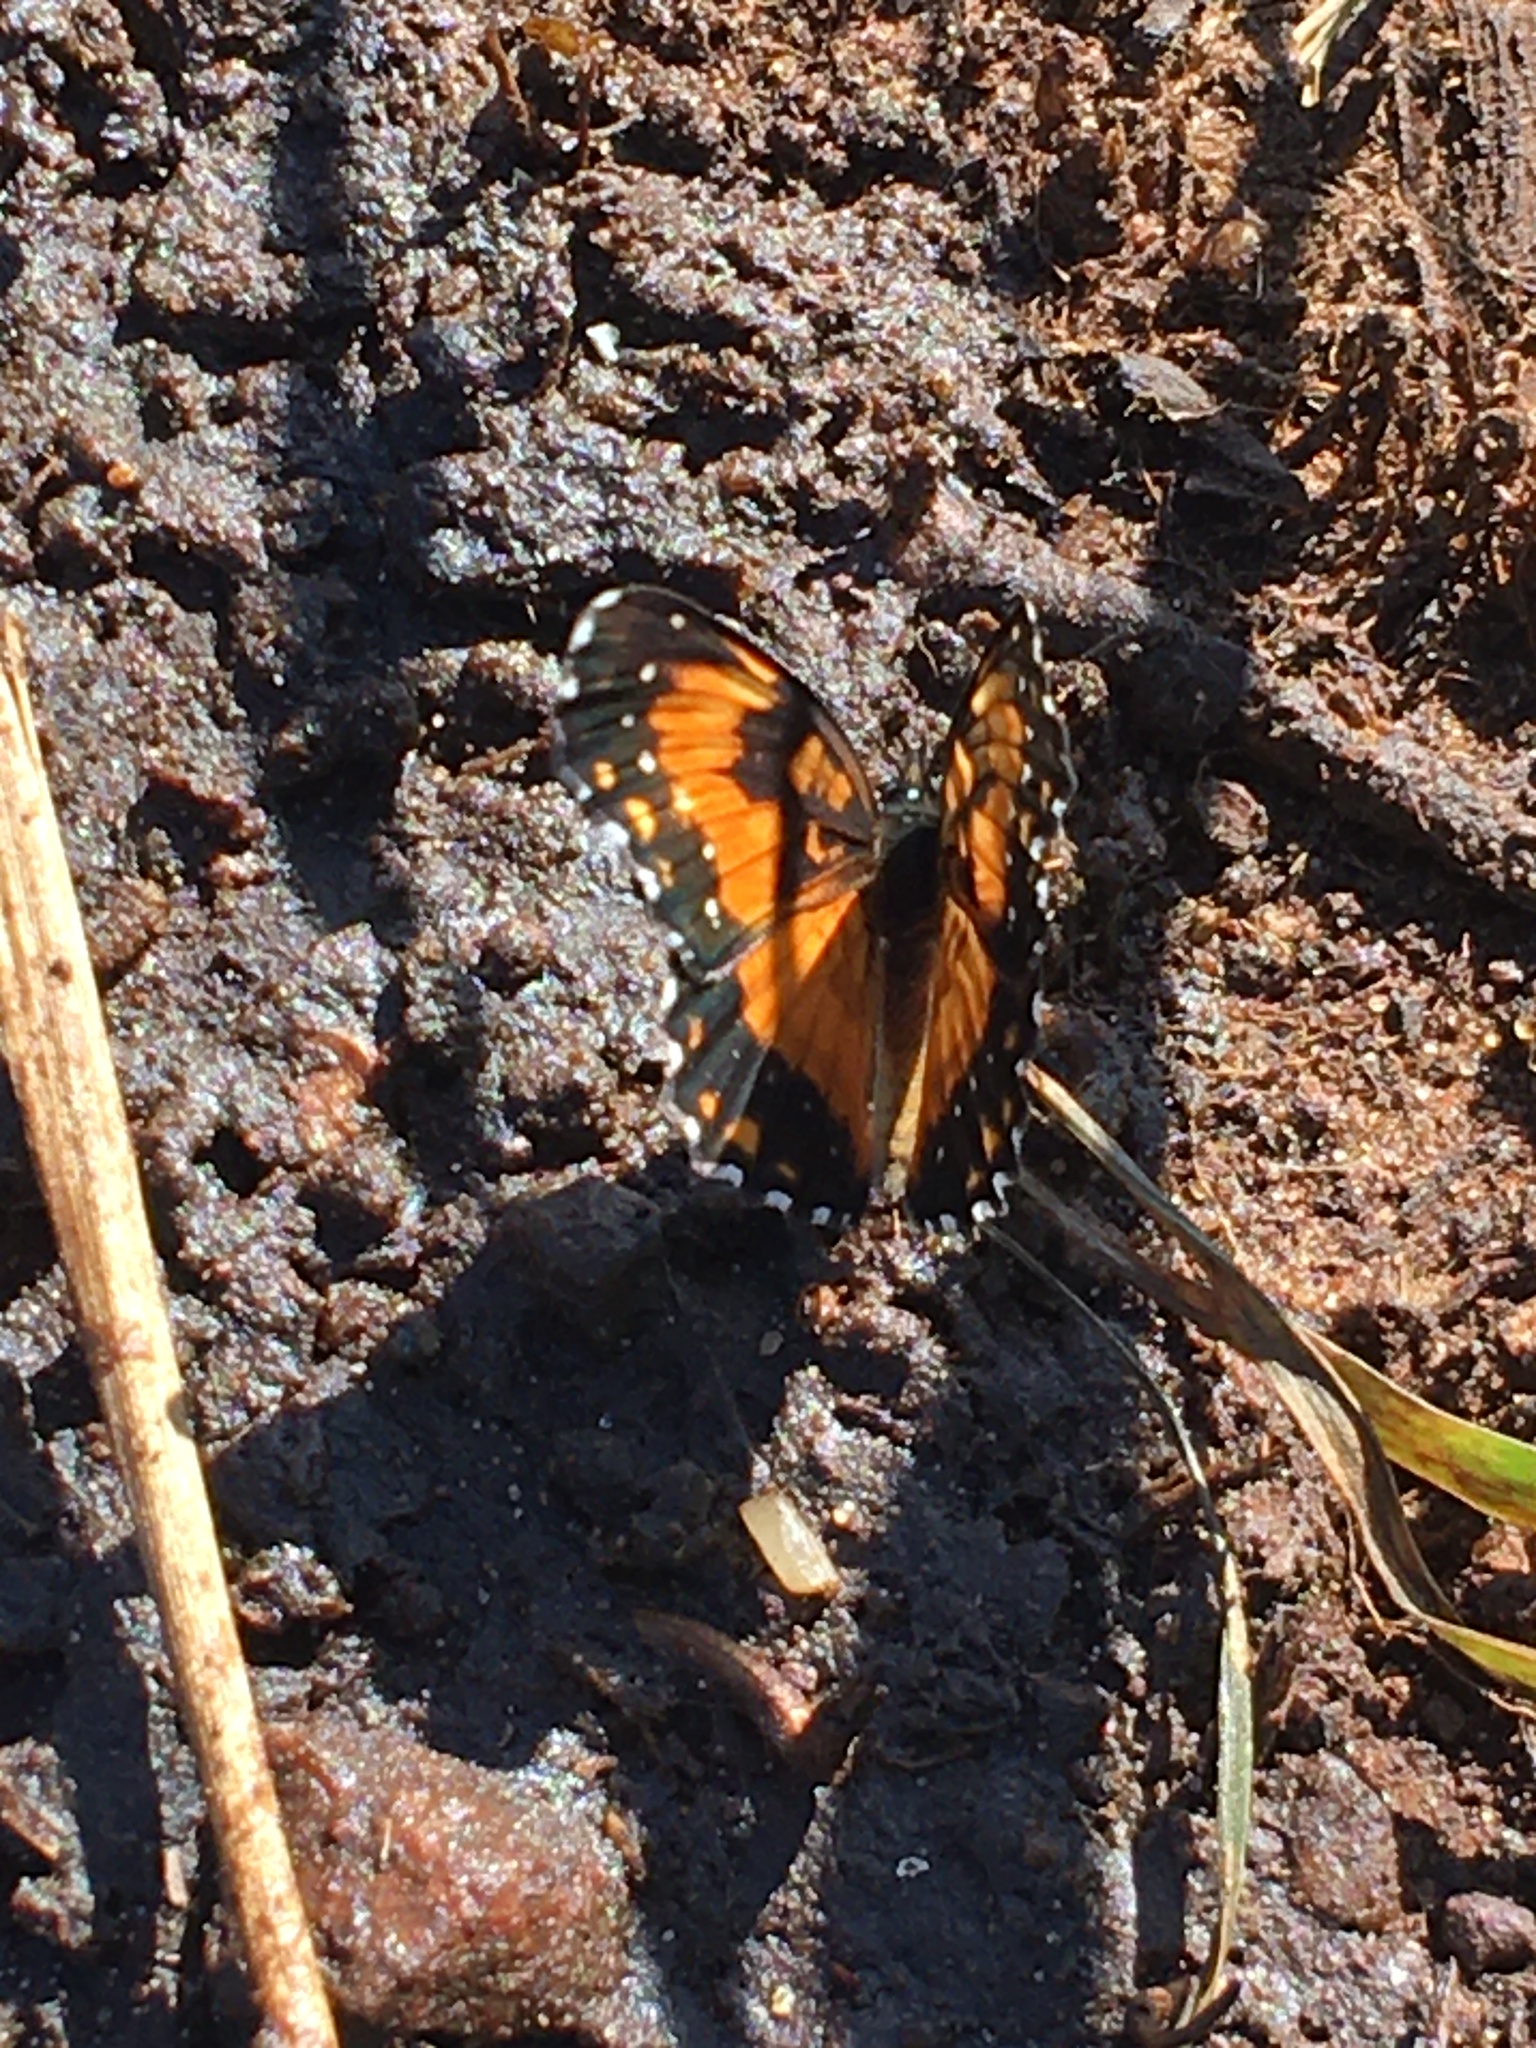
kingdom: Animalia
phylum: Arthropoda
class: Insecta
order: Lepidoptera
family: Nymphalidae
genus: Chlosyne
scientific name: Chlosyne lacinia
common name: Bordered patch
